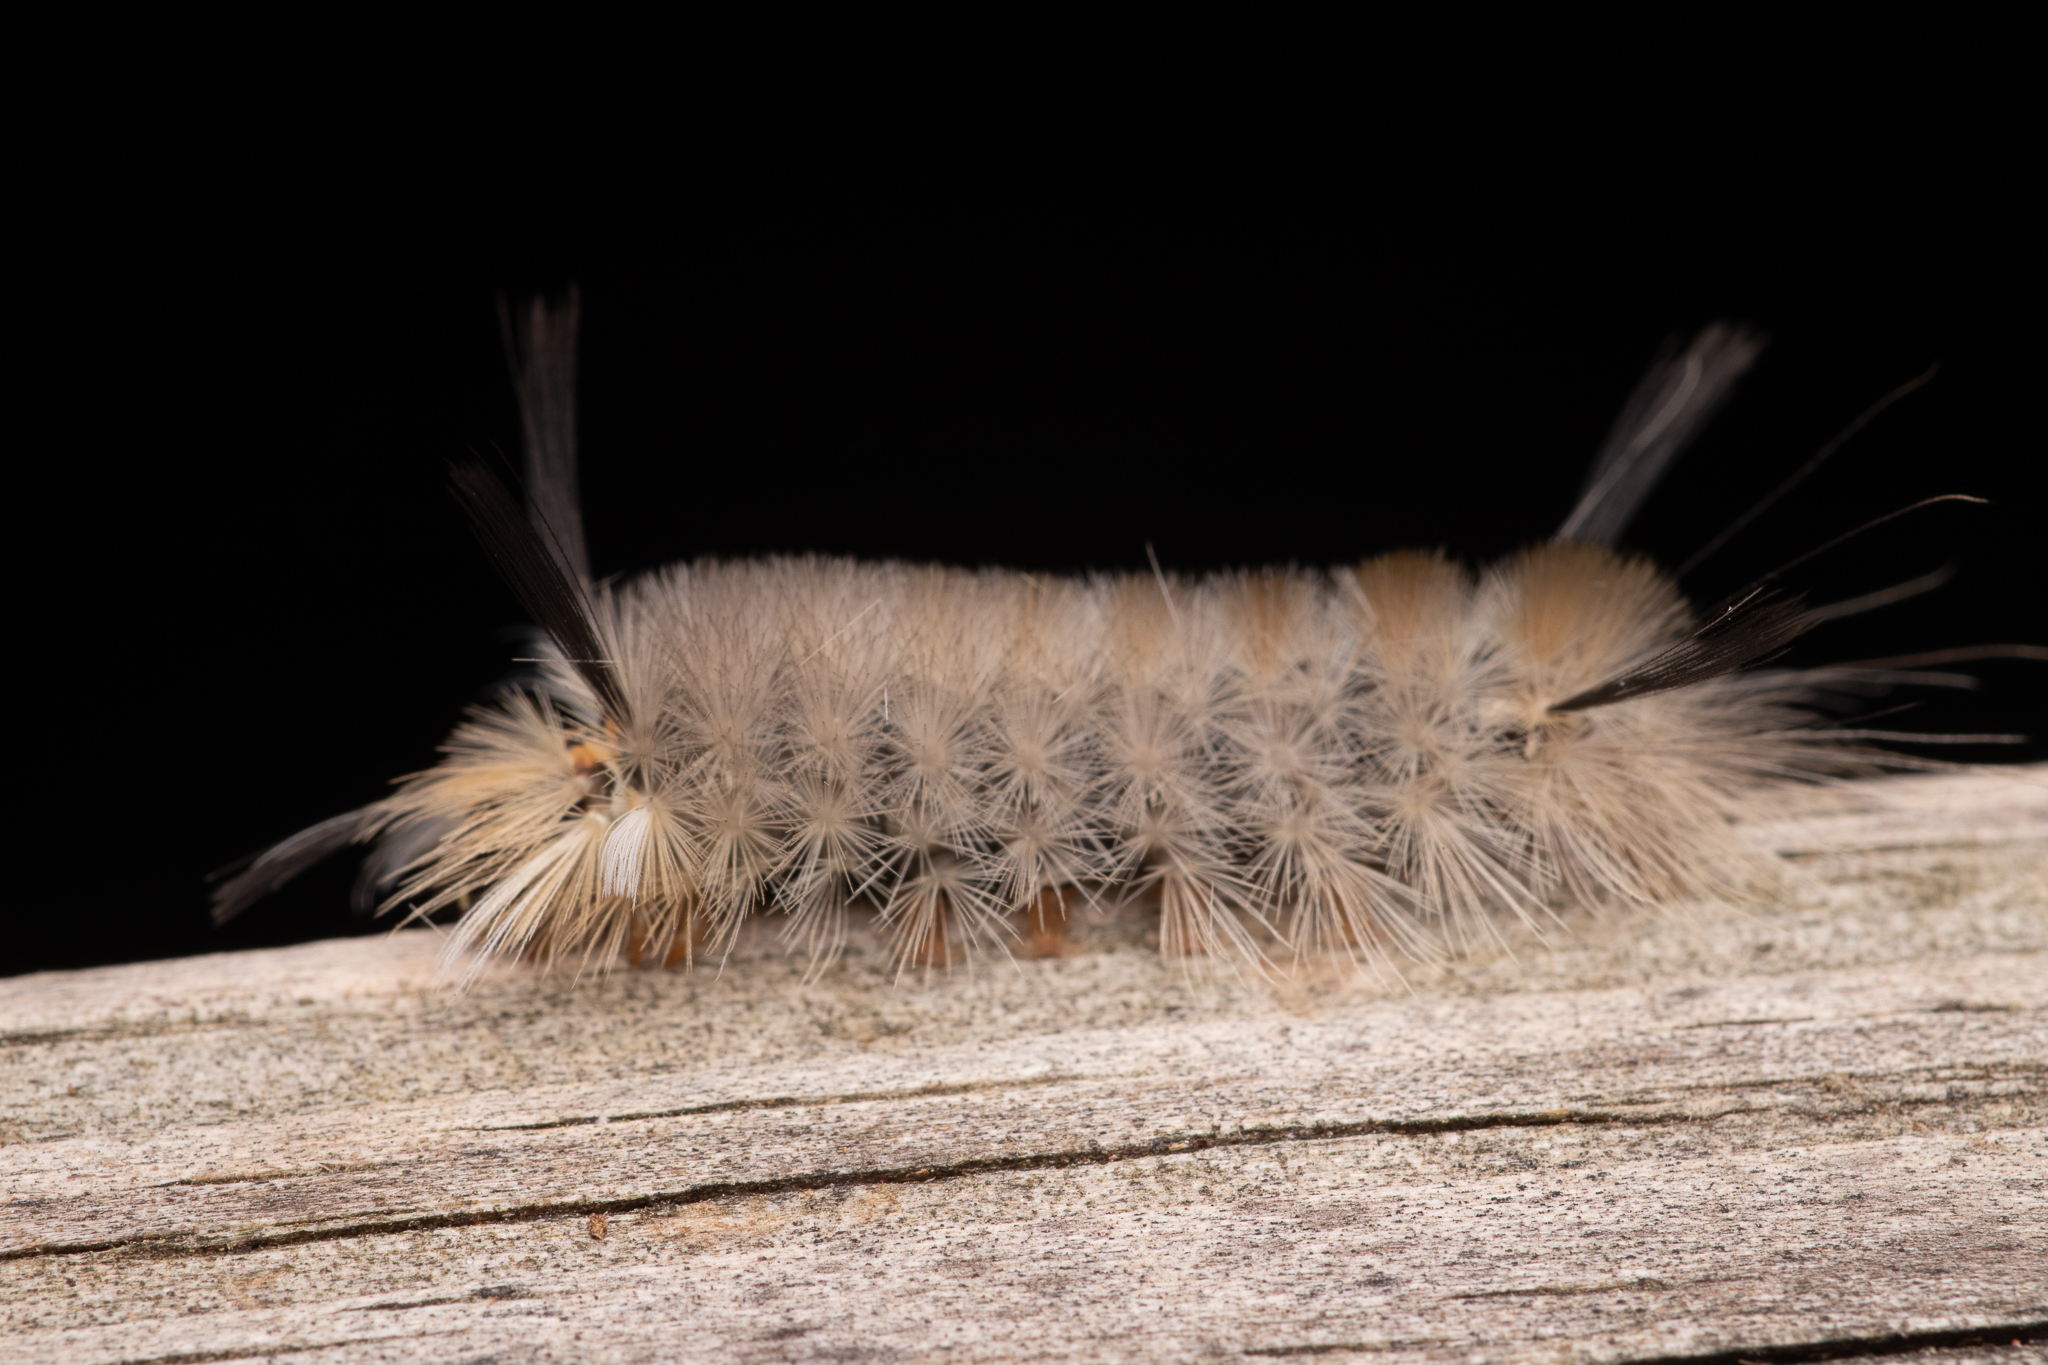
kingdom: Animalia
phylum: Arthropoda
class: Insecta
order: Lepidoptera
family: Erebidae
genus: Halysidota
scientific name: Halysidota tessellaris
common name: Banded tussock moth
